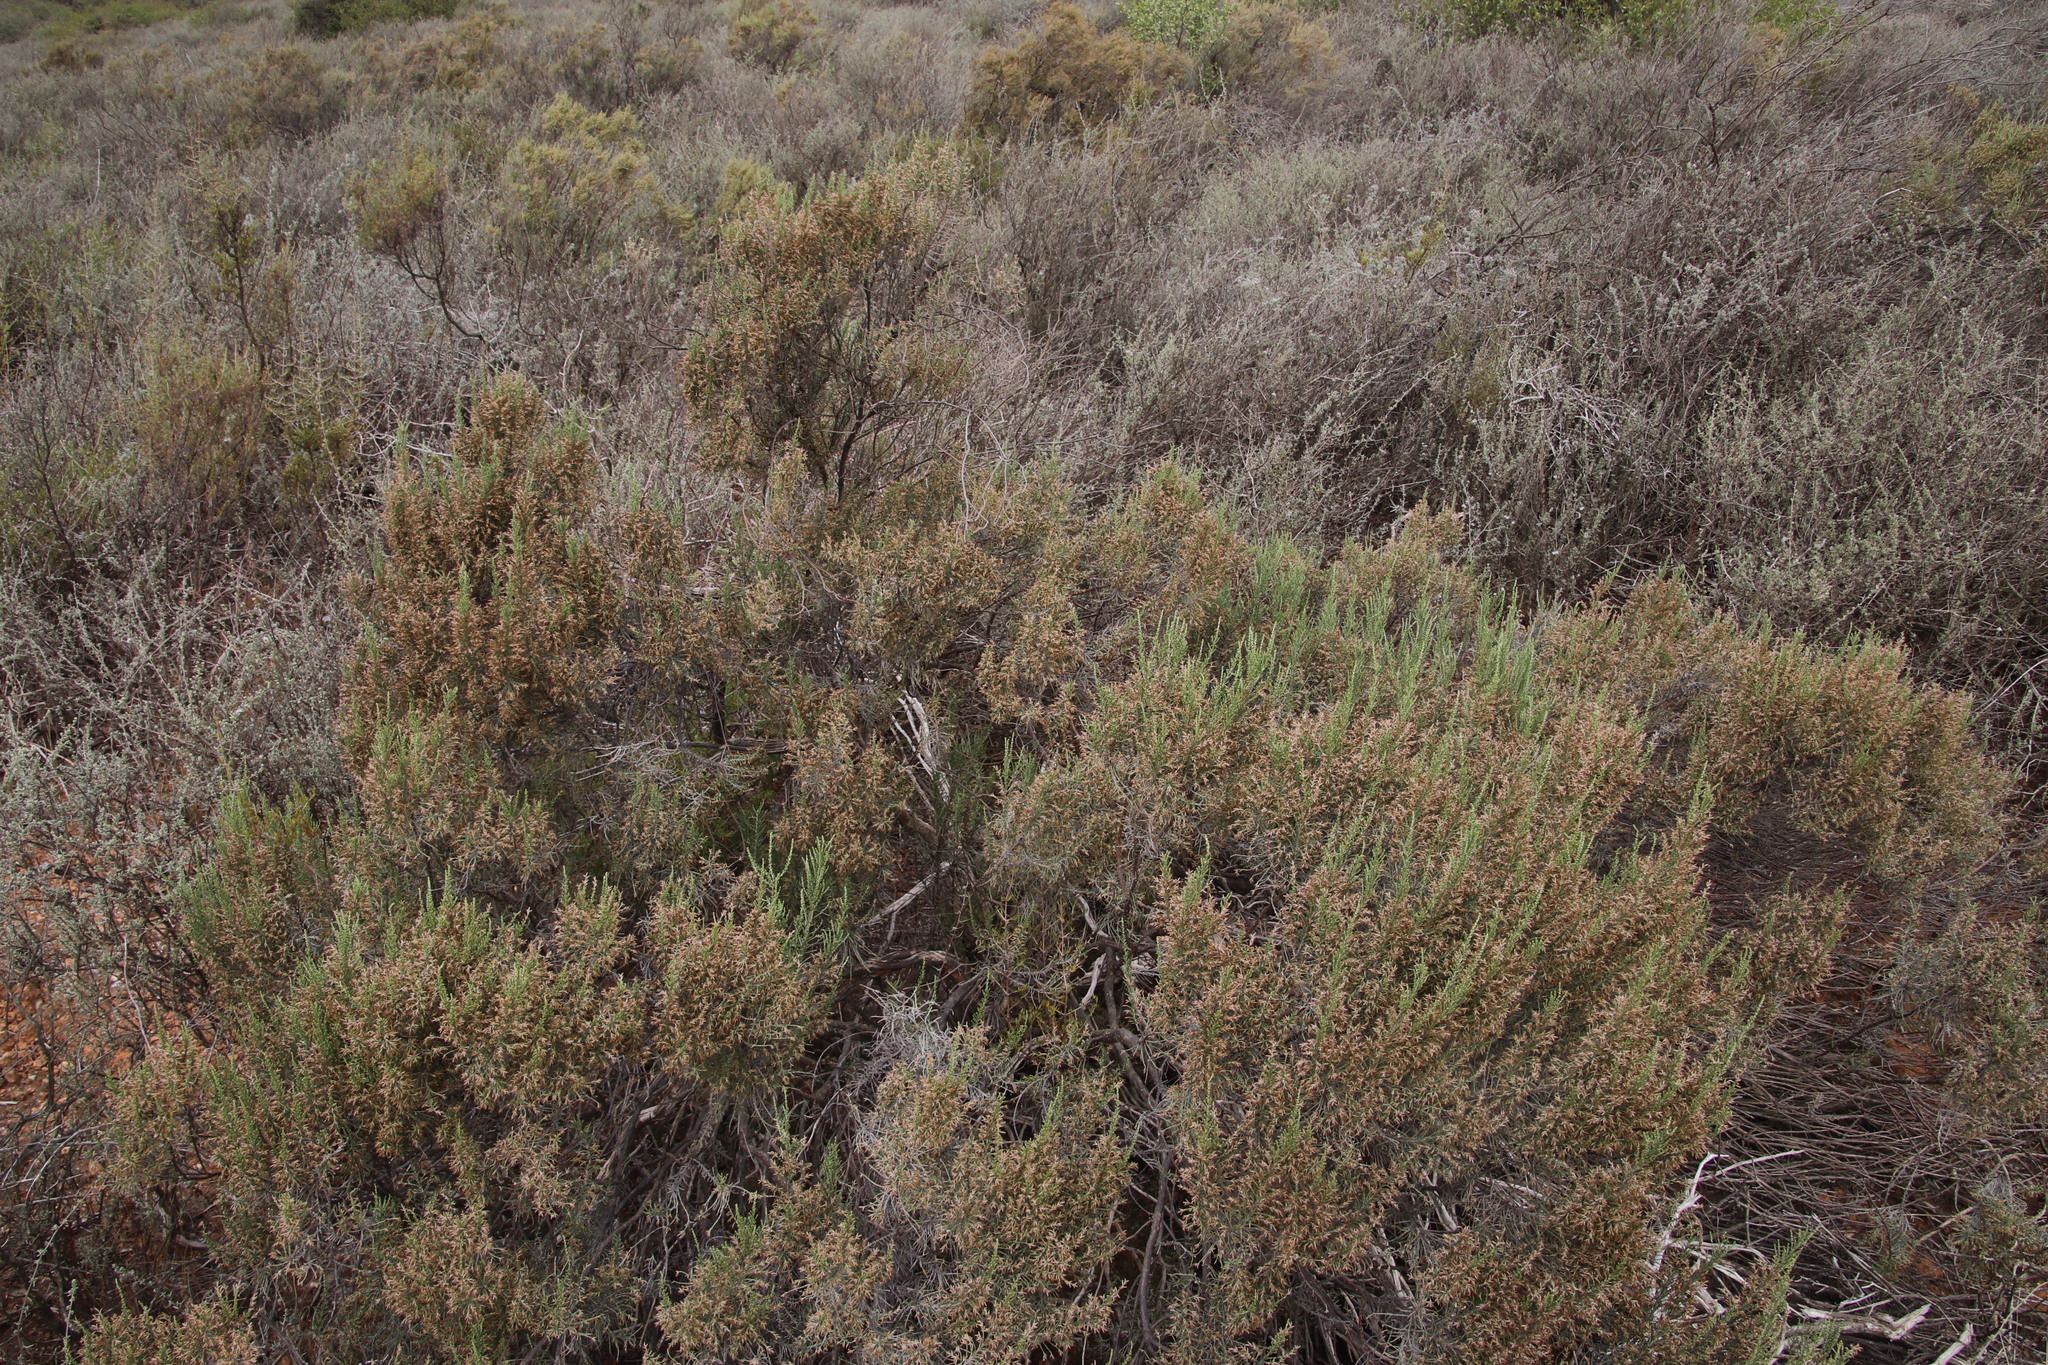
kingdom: Plantae
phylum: Tracheophyta
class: Magnoliopsida
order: Asterales
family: Asteraceae
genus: Dicerothamnus
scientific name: Dicerothamnus rhinocerotis
